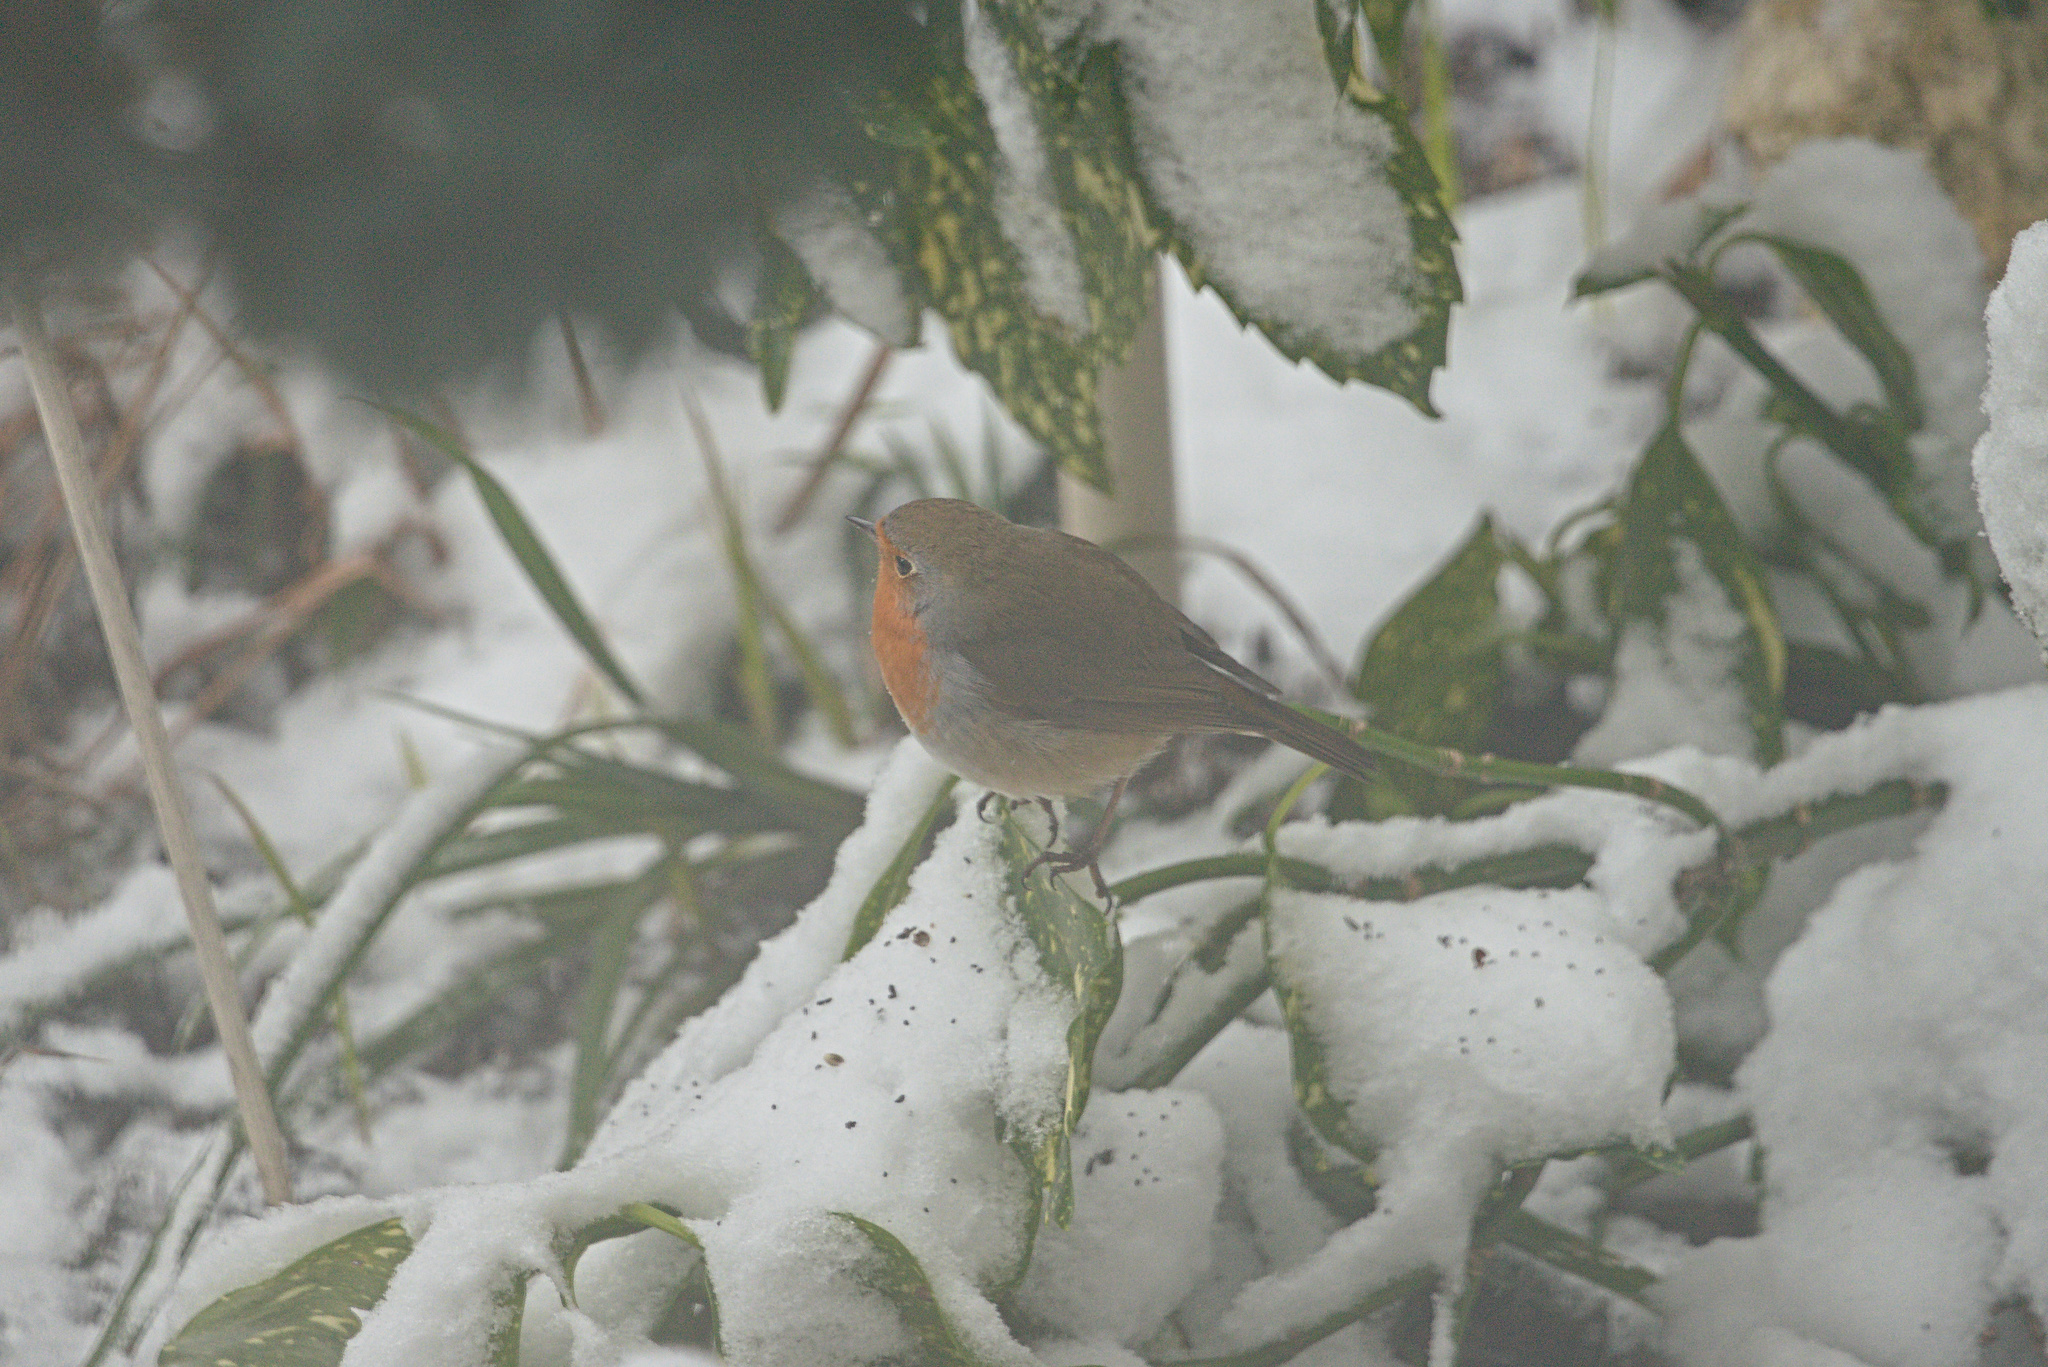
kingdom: Animalia
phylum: Chordata
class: Aves
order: Passeriformes
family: Muscicapidae
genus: Erithacus
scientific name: Erithacus rubecula
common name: European robin
